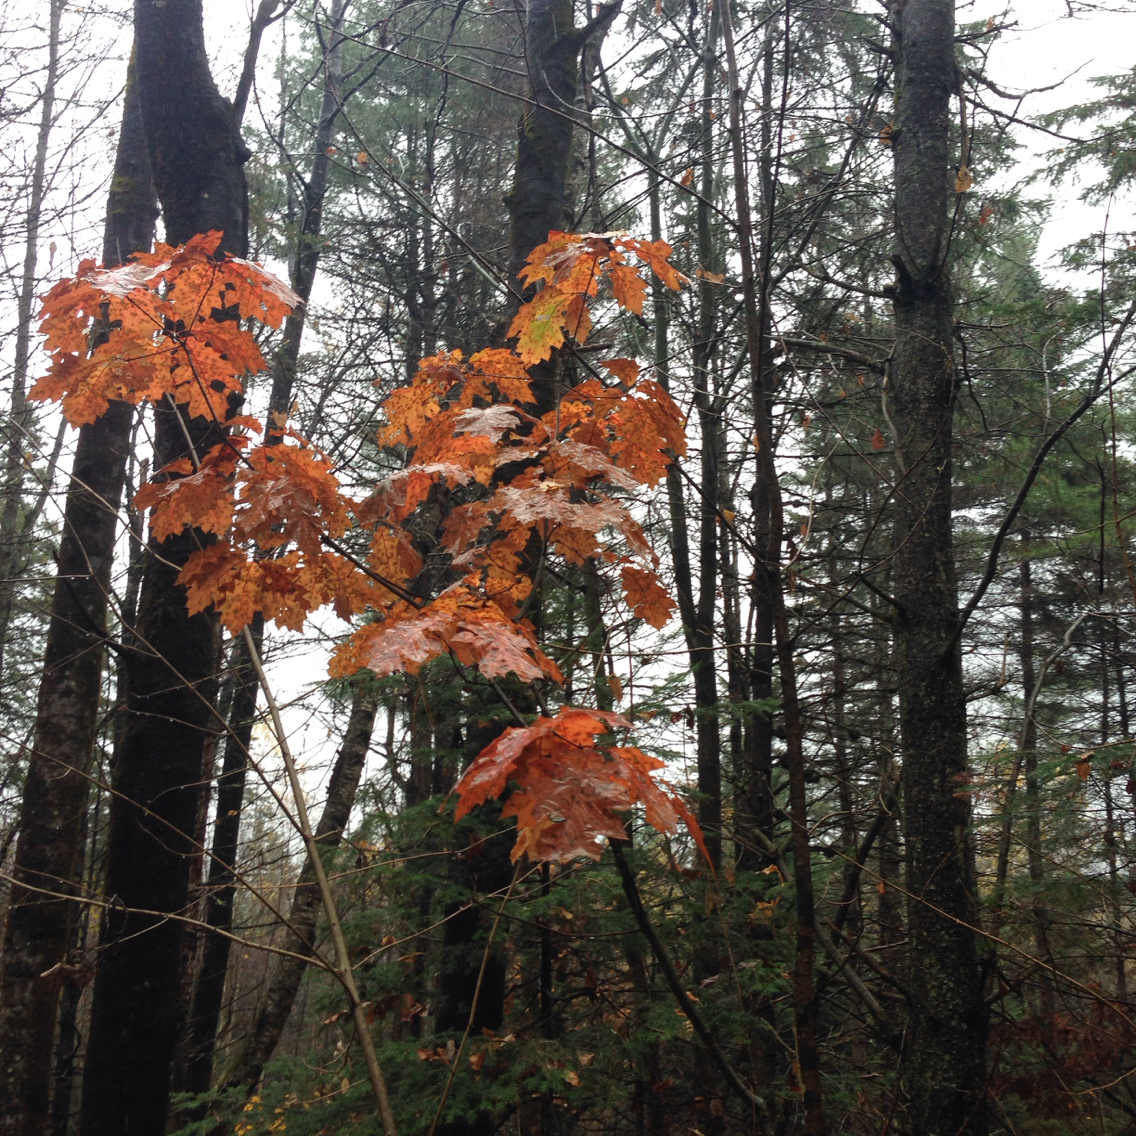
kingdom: Plantae
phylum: Tracheophyta
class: Magnoliopsida
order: Fagales
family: Fagaceae
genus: Quercus
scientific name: Quercus rubra
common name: Red oak
